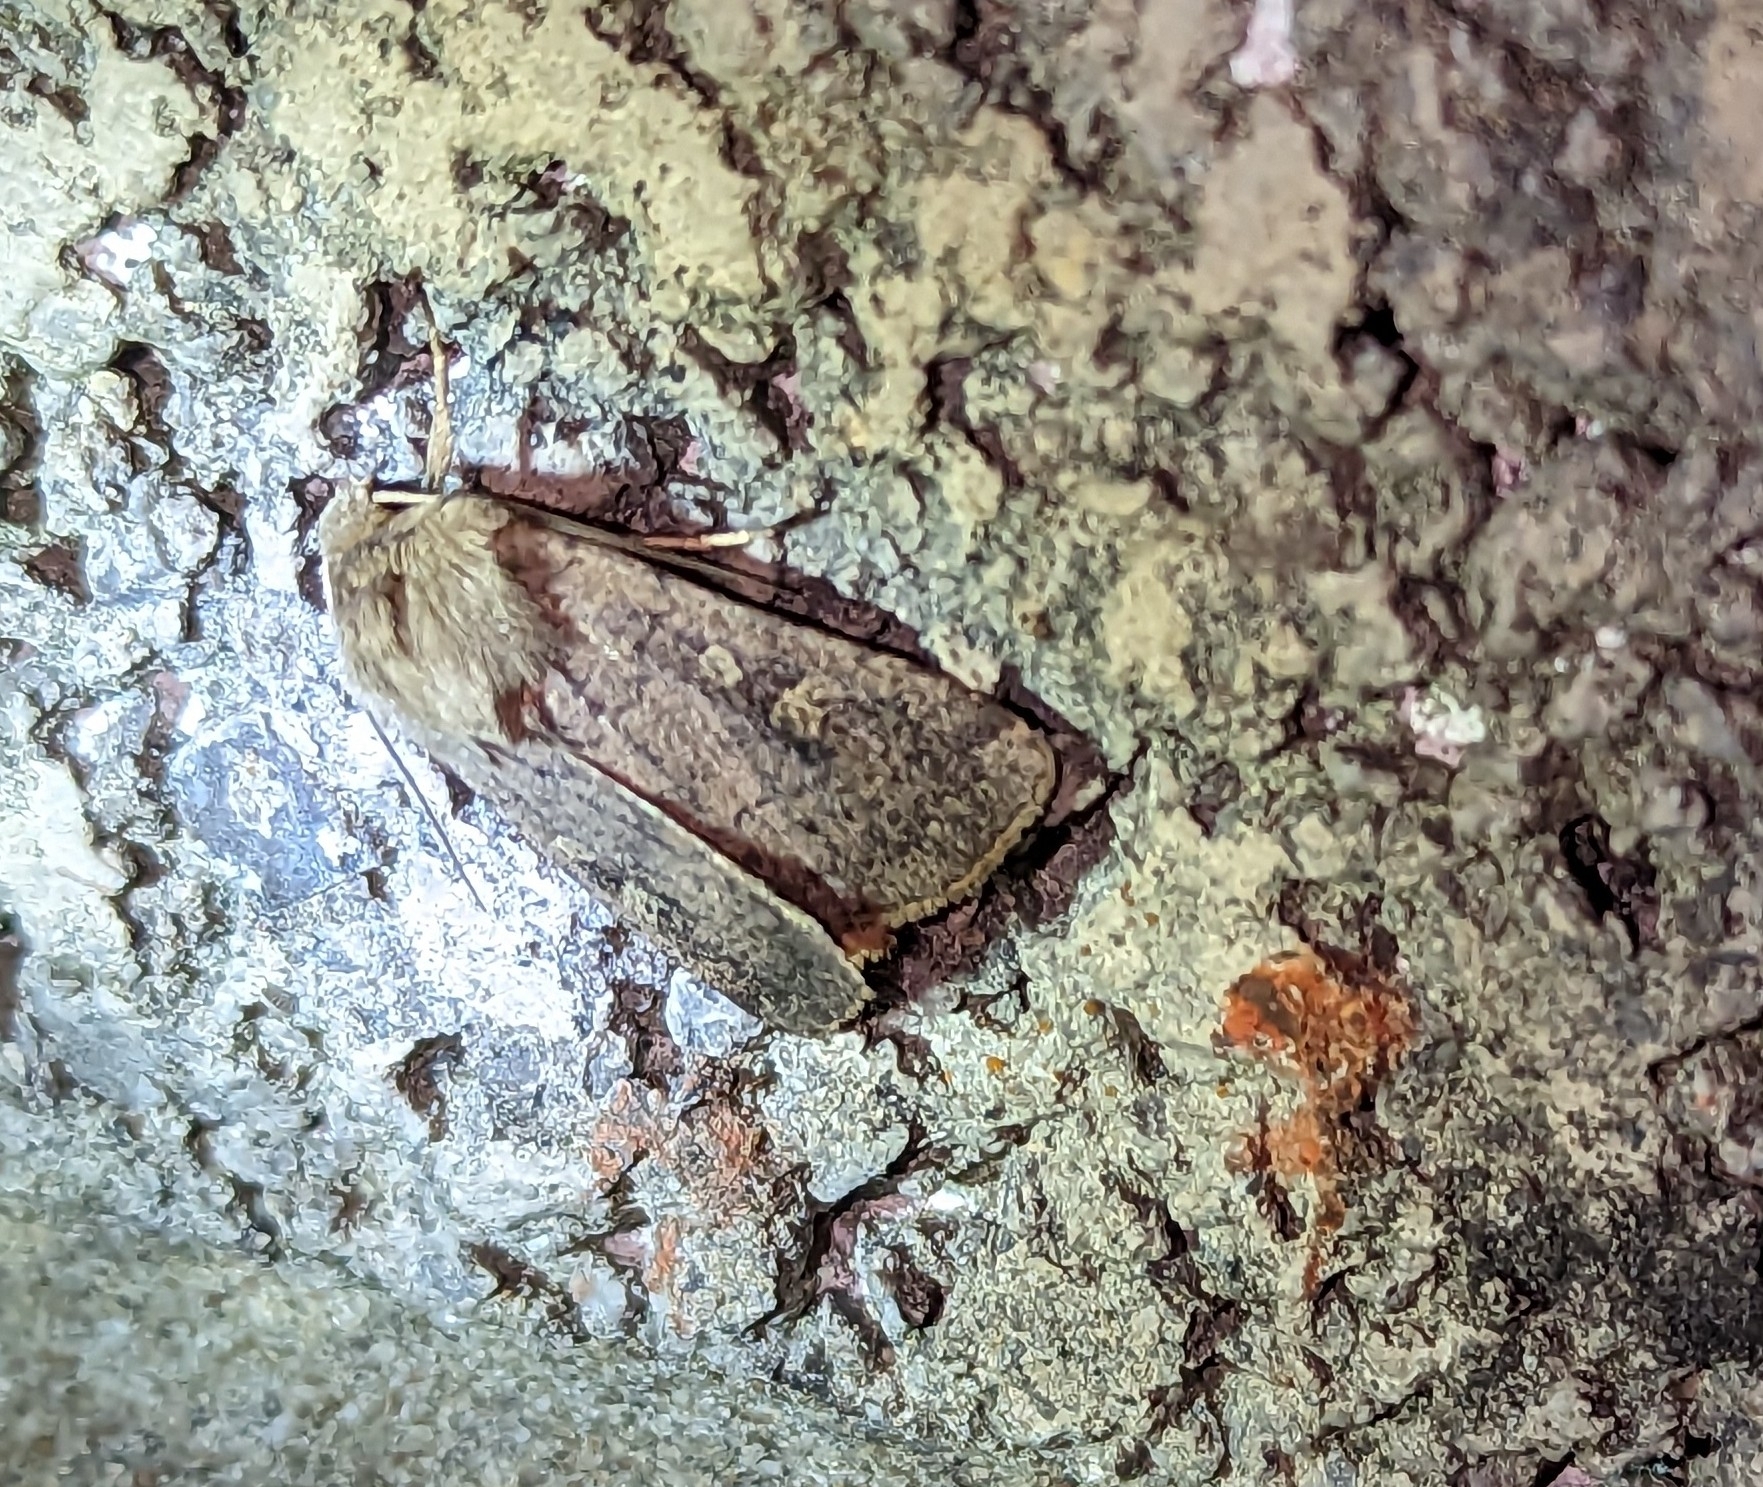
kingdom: Animalia
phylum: Arthropoda
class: Insecta
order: Lepidoptera
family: Noctuidae
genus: Xestia
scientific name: Xestia xanthographa
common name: Square-spot rustic
